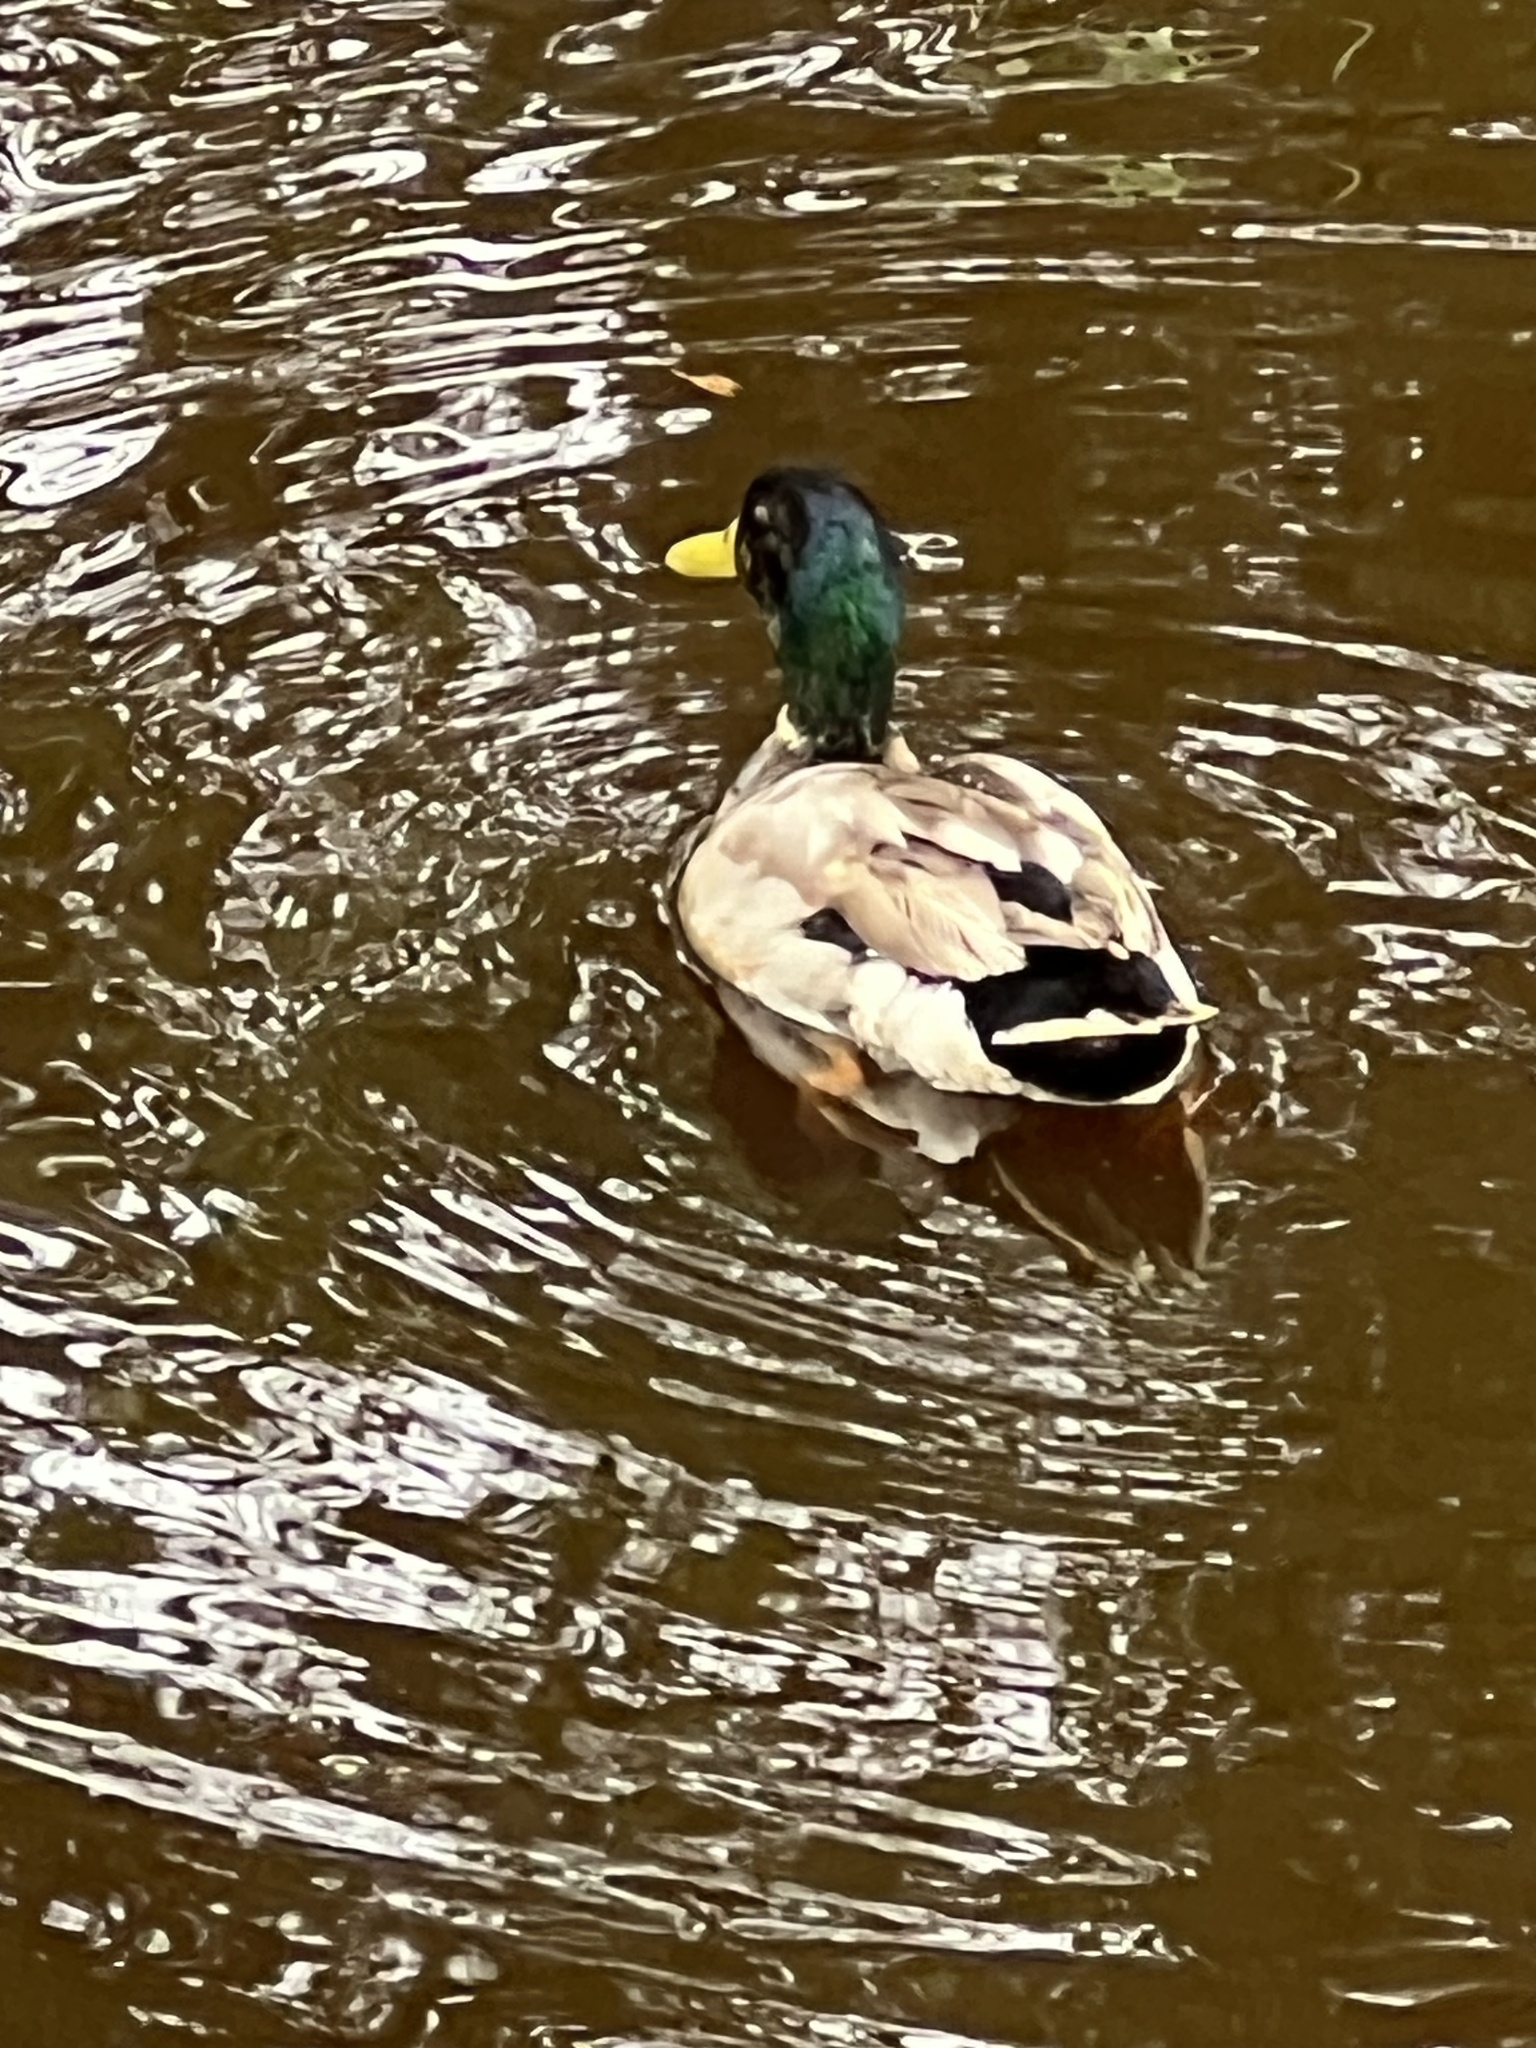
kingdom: Animalia
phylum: Chordata
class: Aves
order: Anseriformes
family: Anatidae
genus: Anas
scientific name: Anas platyrhynchos
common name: Mallard
